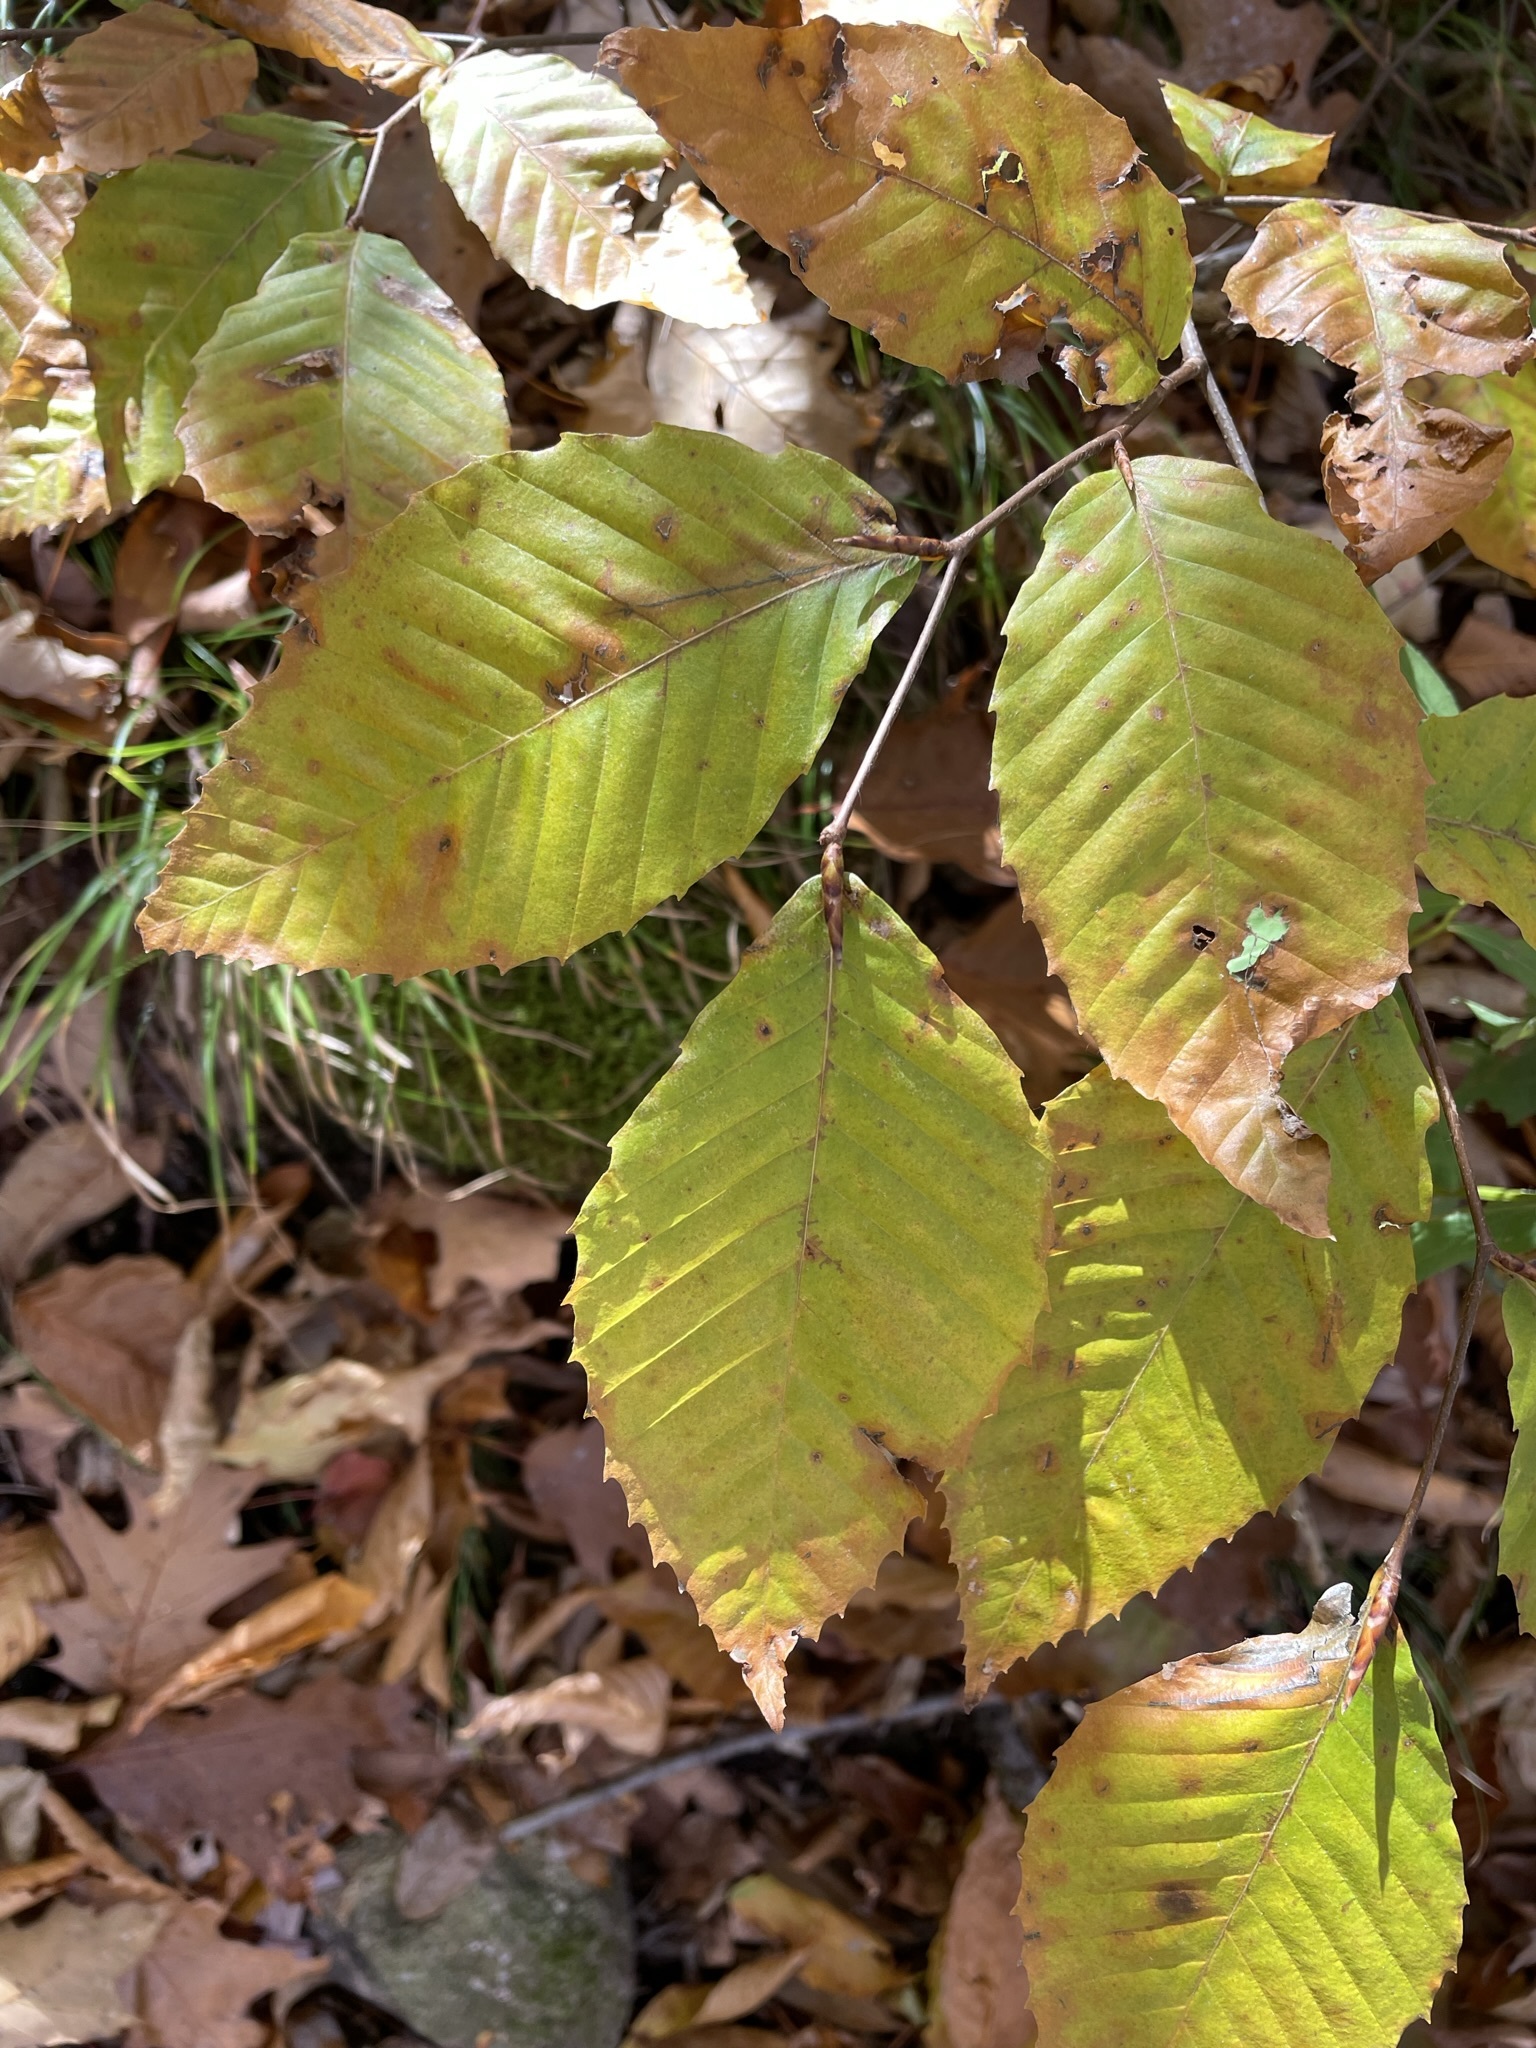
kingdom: Plantae
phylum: Tracheophyta
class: Magnoliopsida
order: Fagales
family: Fagaceae
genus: Fagus
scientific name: Fagus grandifolia
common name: American beech
